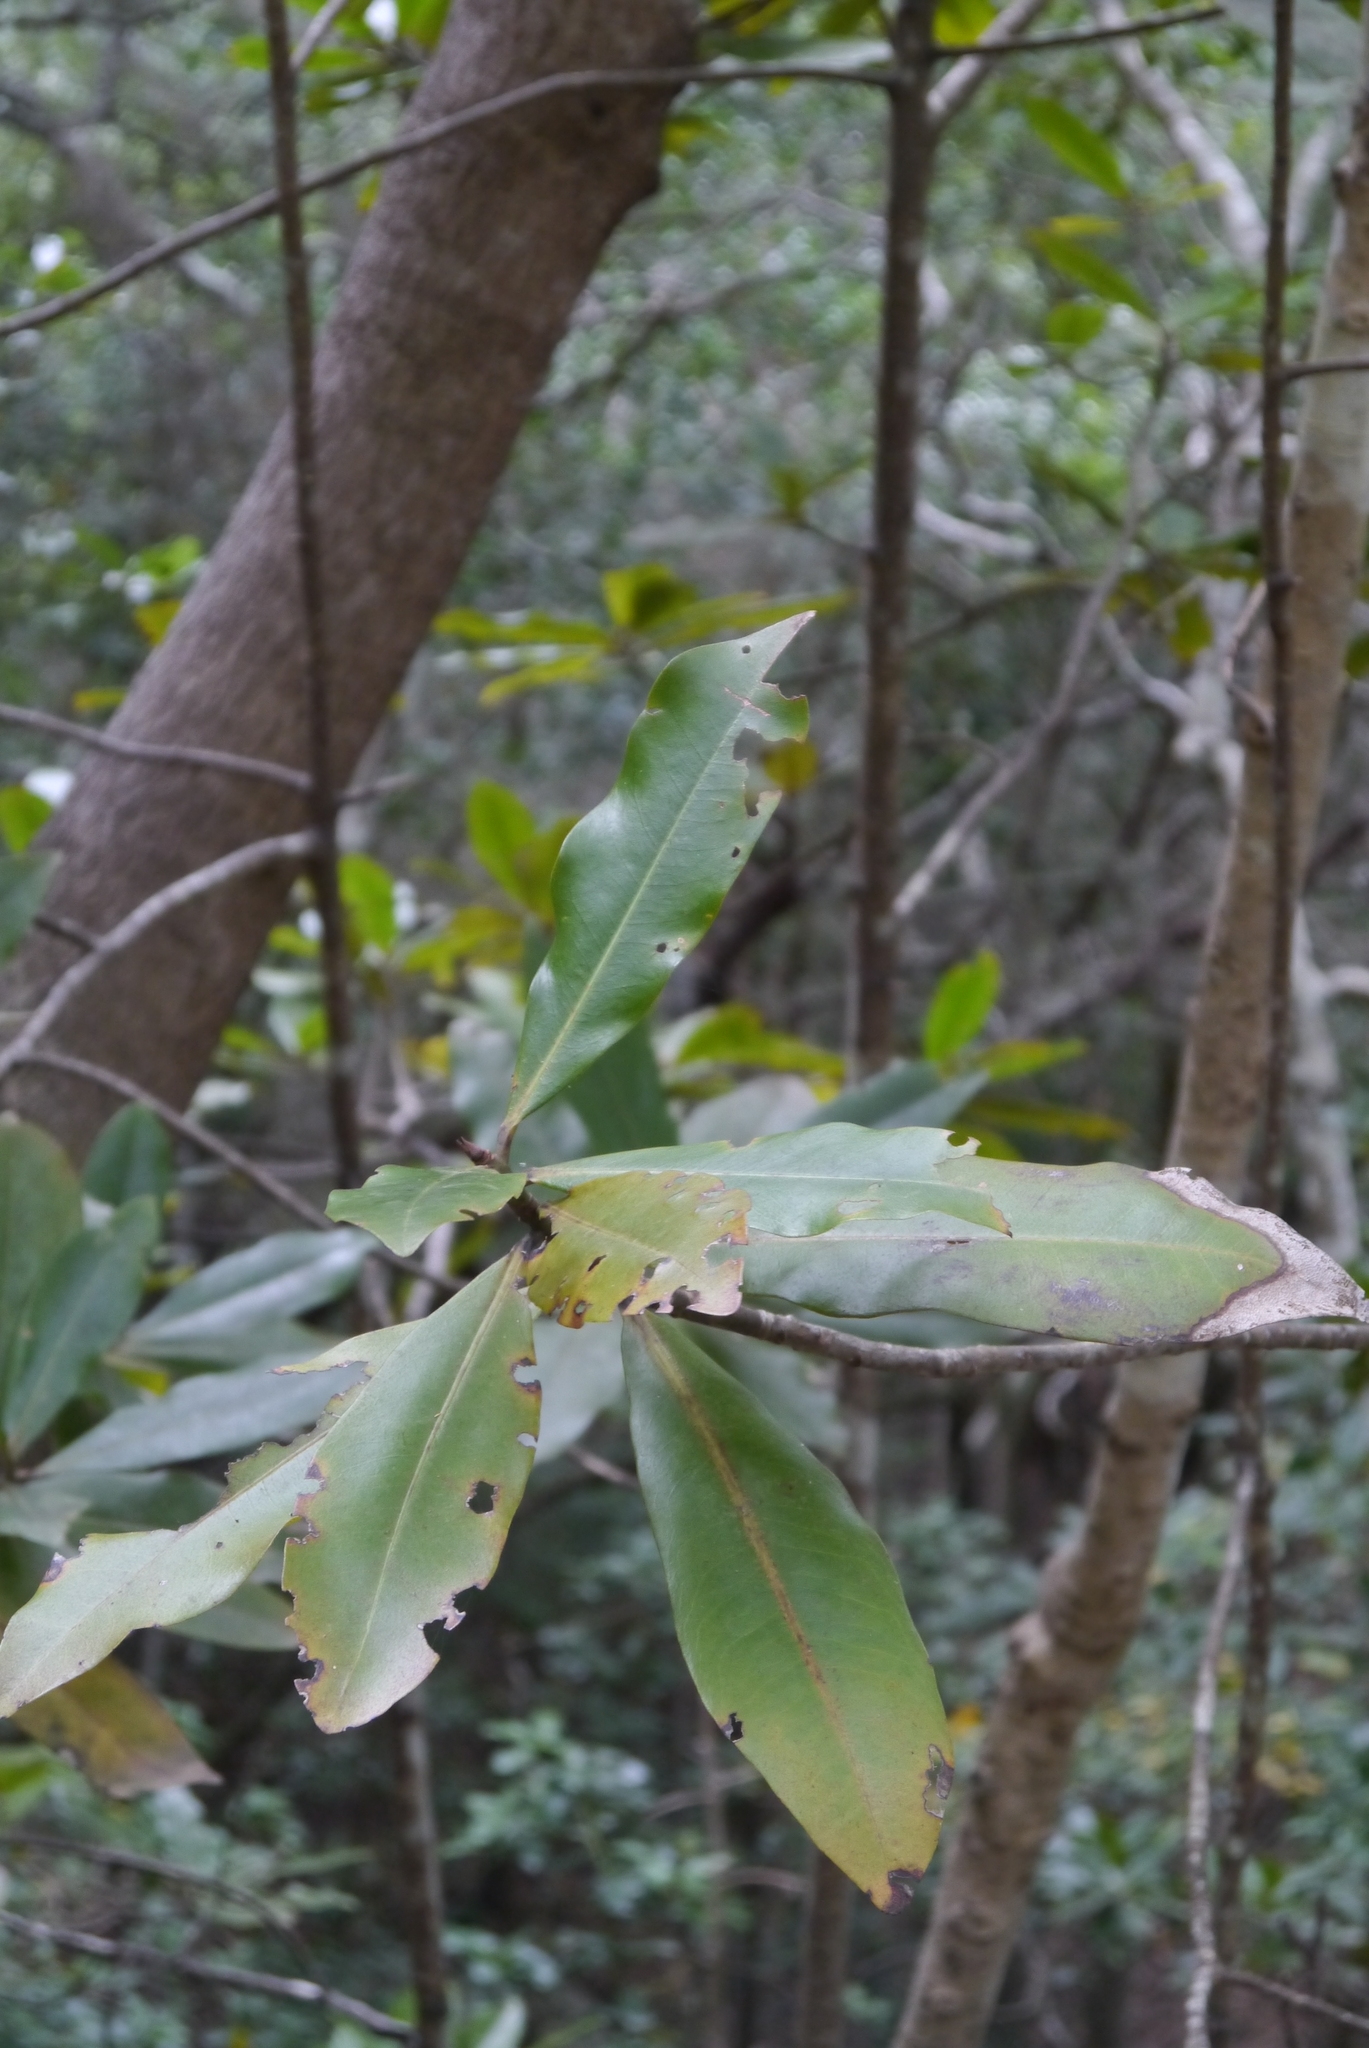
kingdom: Plantae
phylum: Tracheophyta
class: Magnoliopsida
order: Fagales
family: Myricaceae
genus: Morella
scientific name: Morella faya
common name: Firetree
